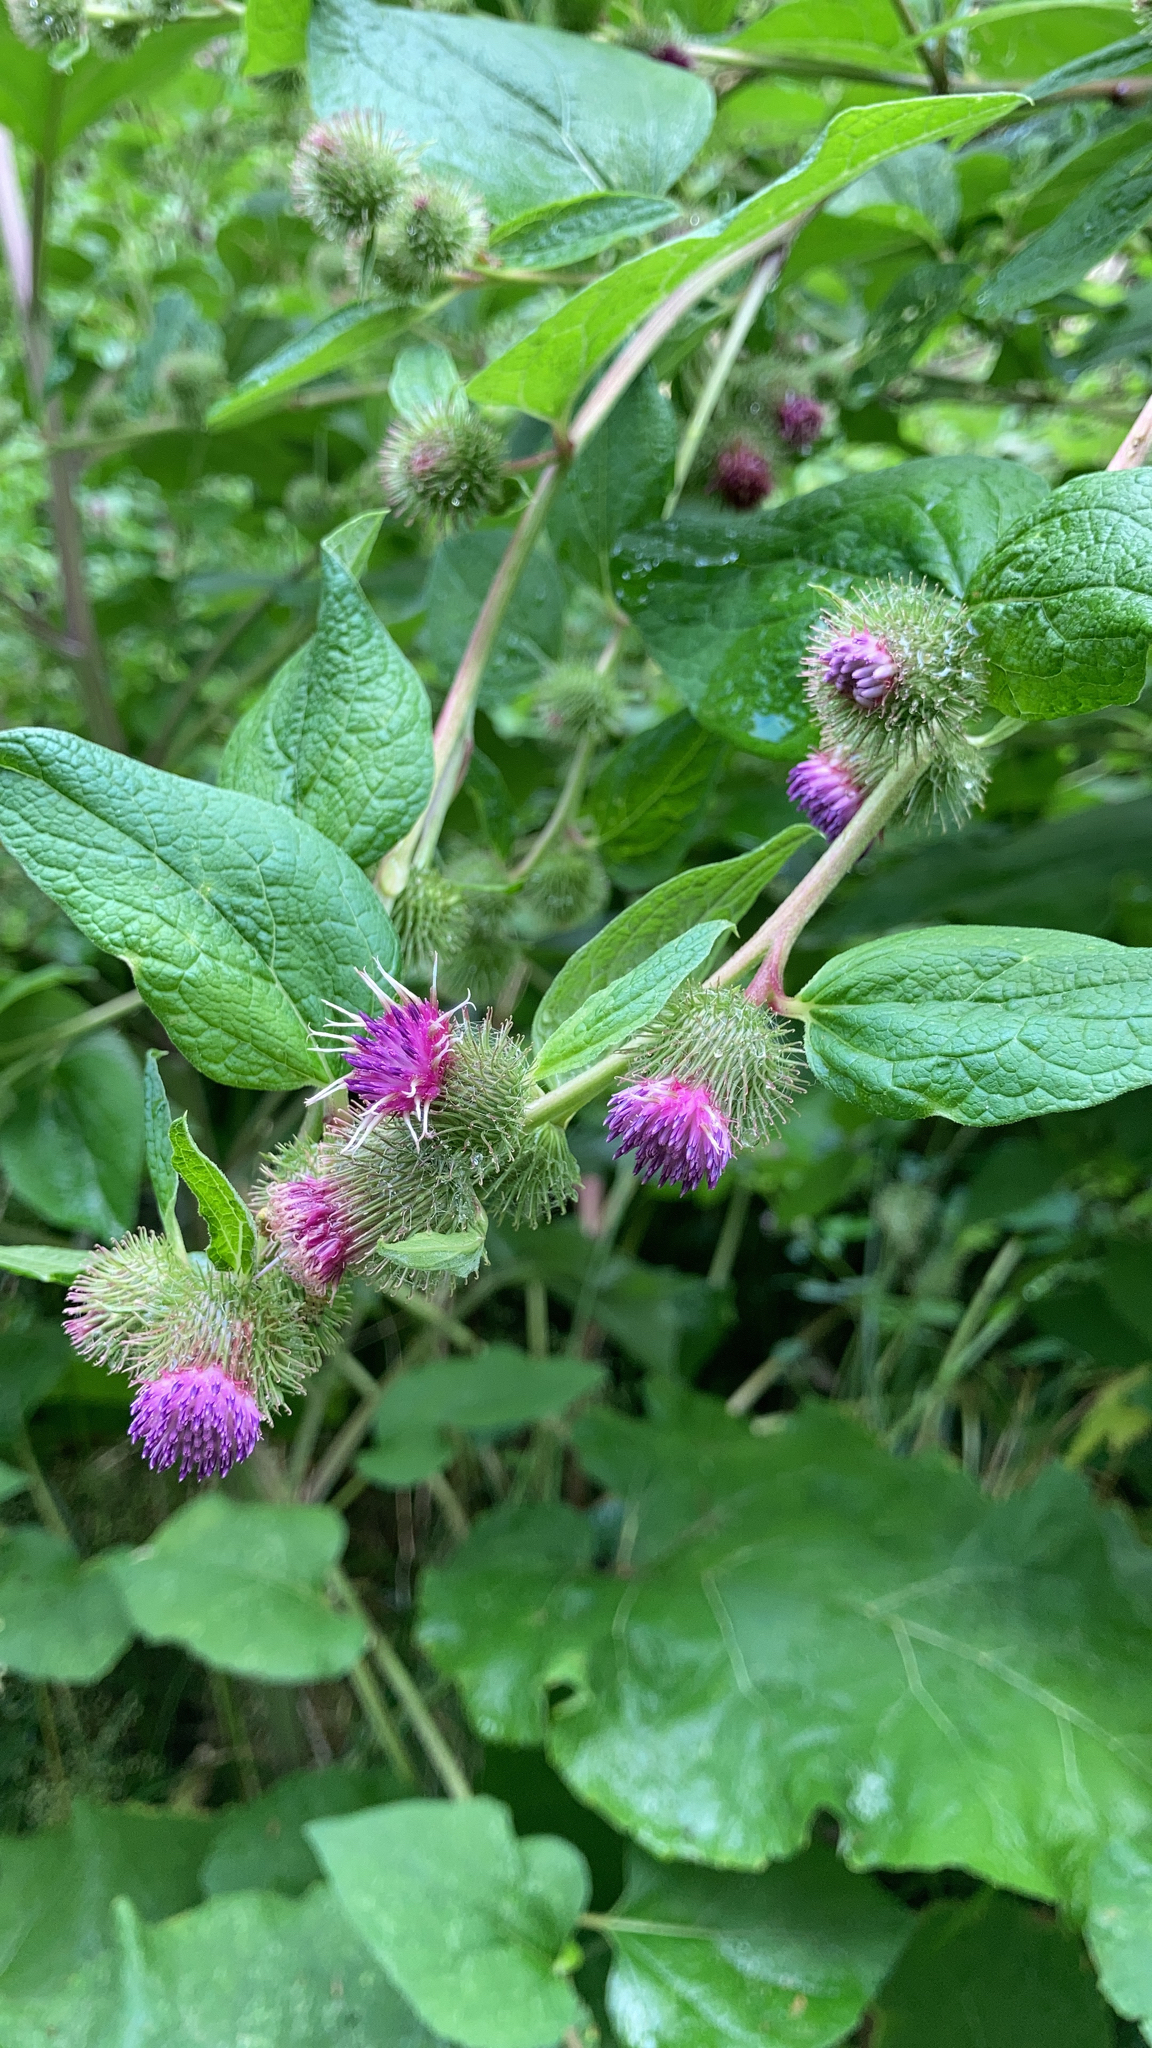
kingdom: Plantae
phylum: Tracheophyta
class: Magnoliopsida
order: Asterales
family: Asteraceae
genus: Arctium
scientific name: Arctium minus
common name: Lesser burdock
